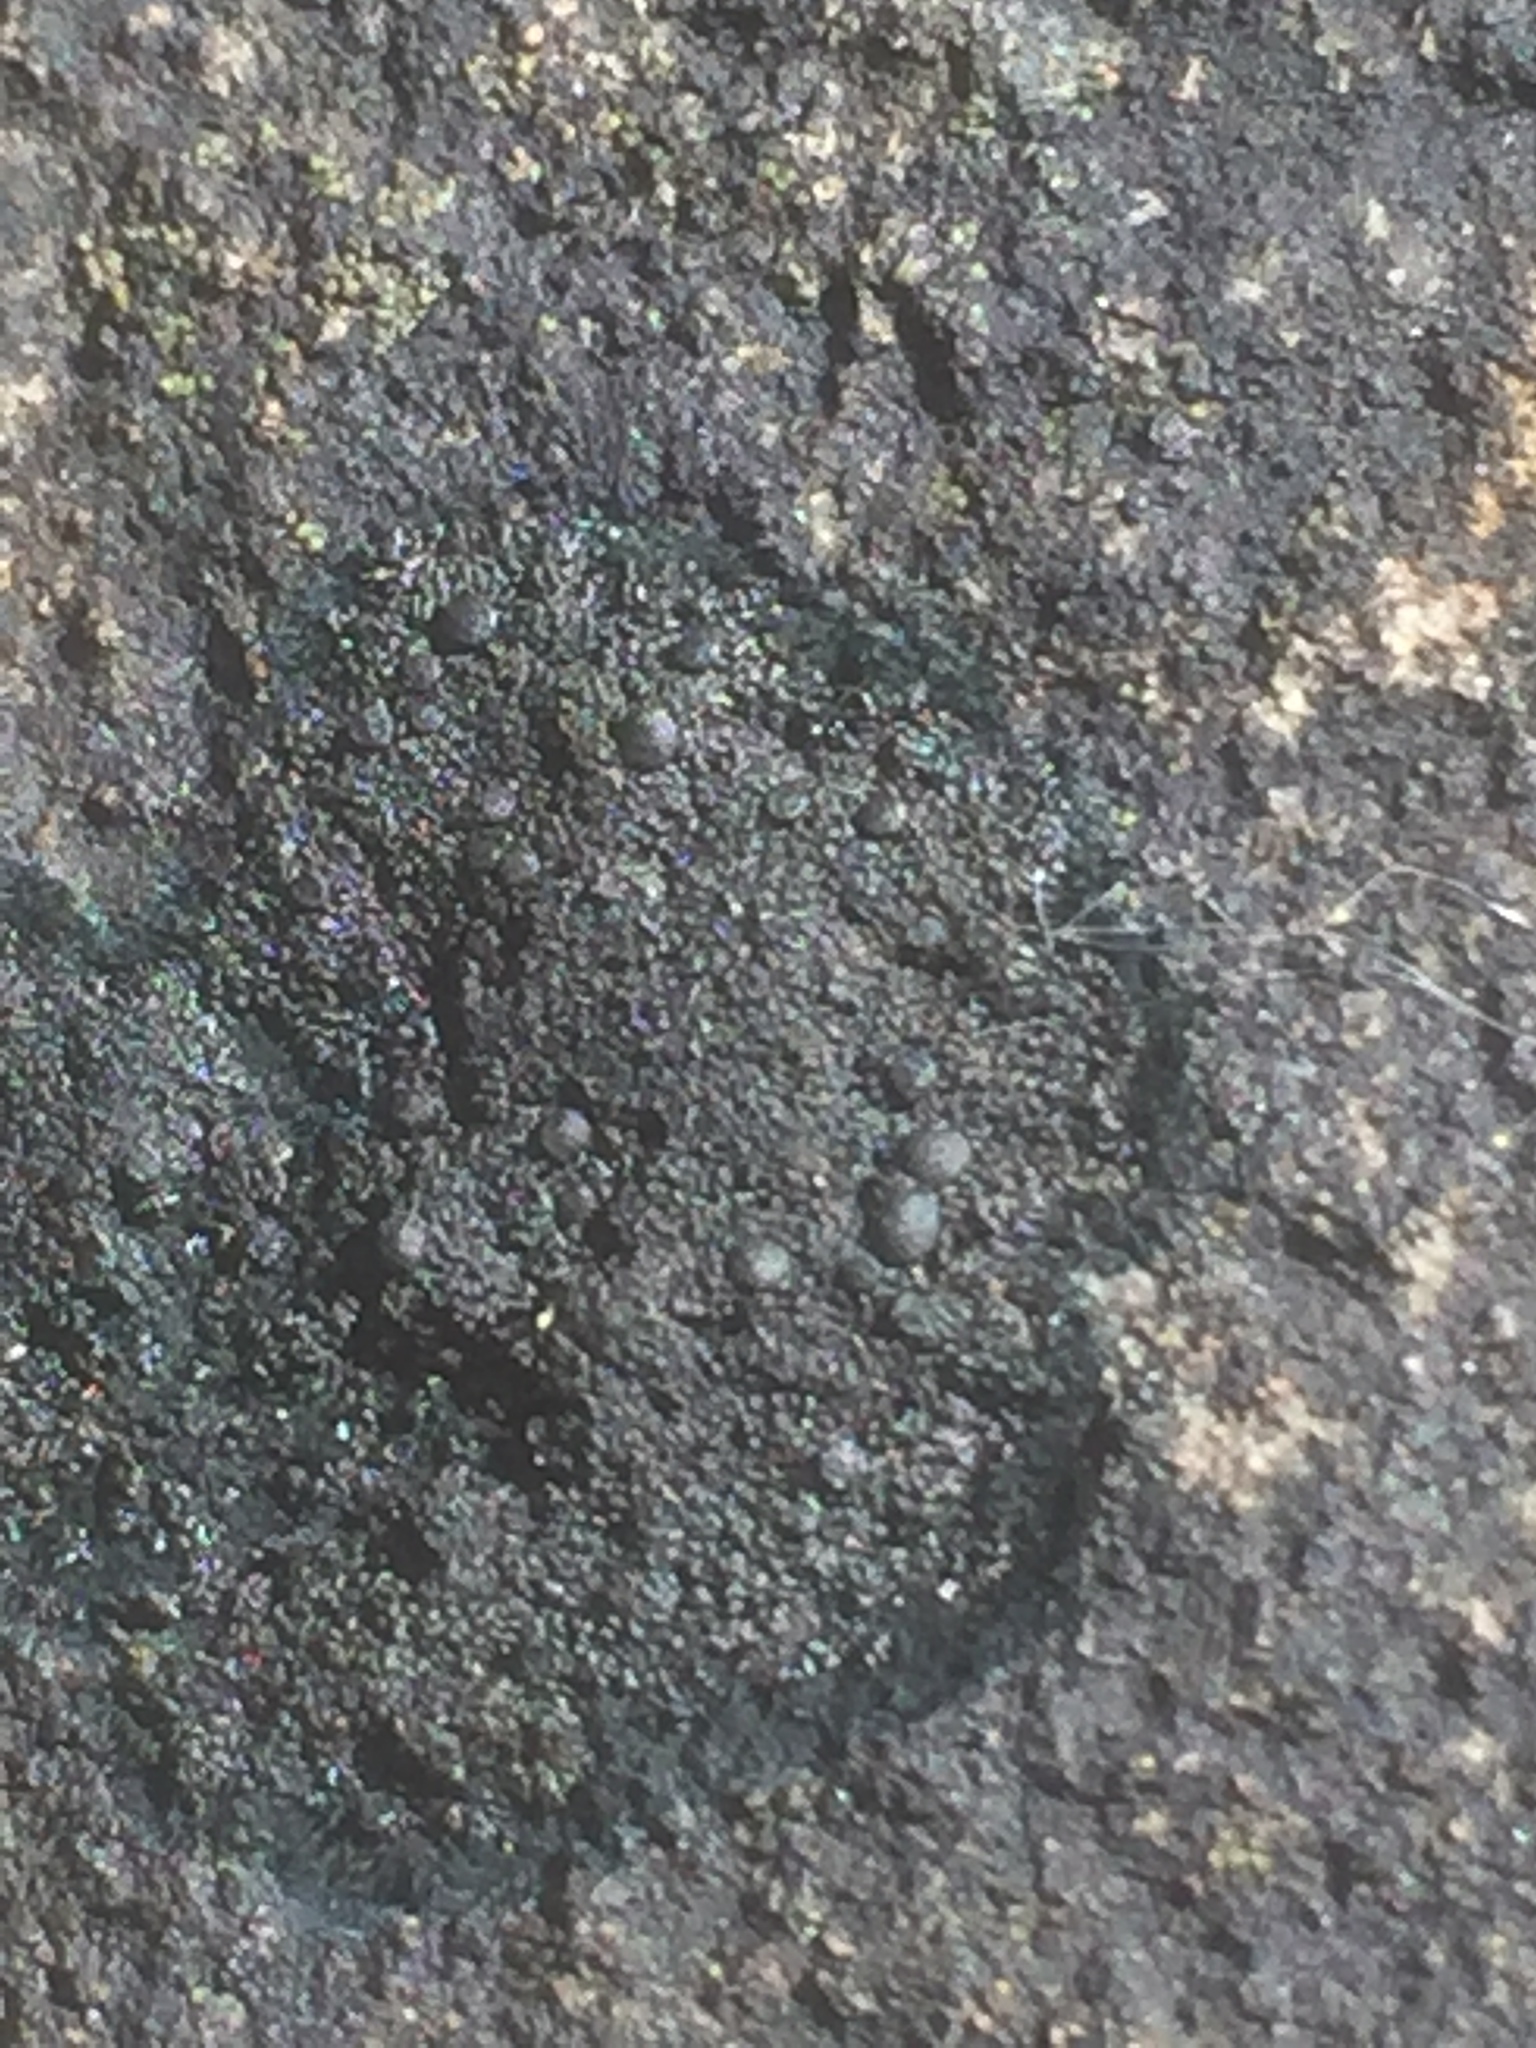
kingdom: Fungi
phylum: Ascomycota
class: Lecanoromycetes
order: Peltigerales
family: Placynthiaceae
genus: Placynthium
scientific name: Placynthium nigrum
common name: Blackthread lichen
